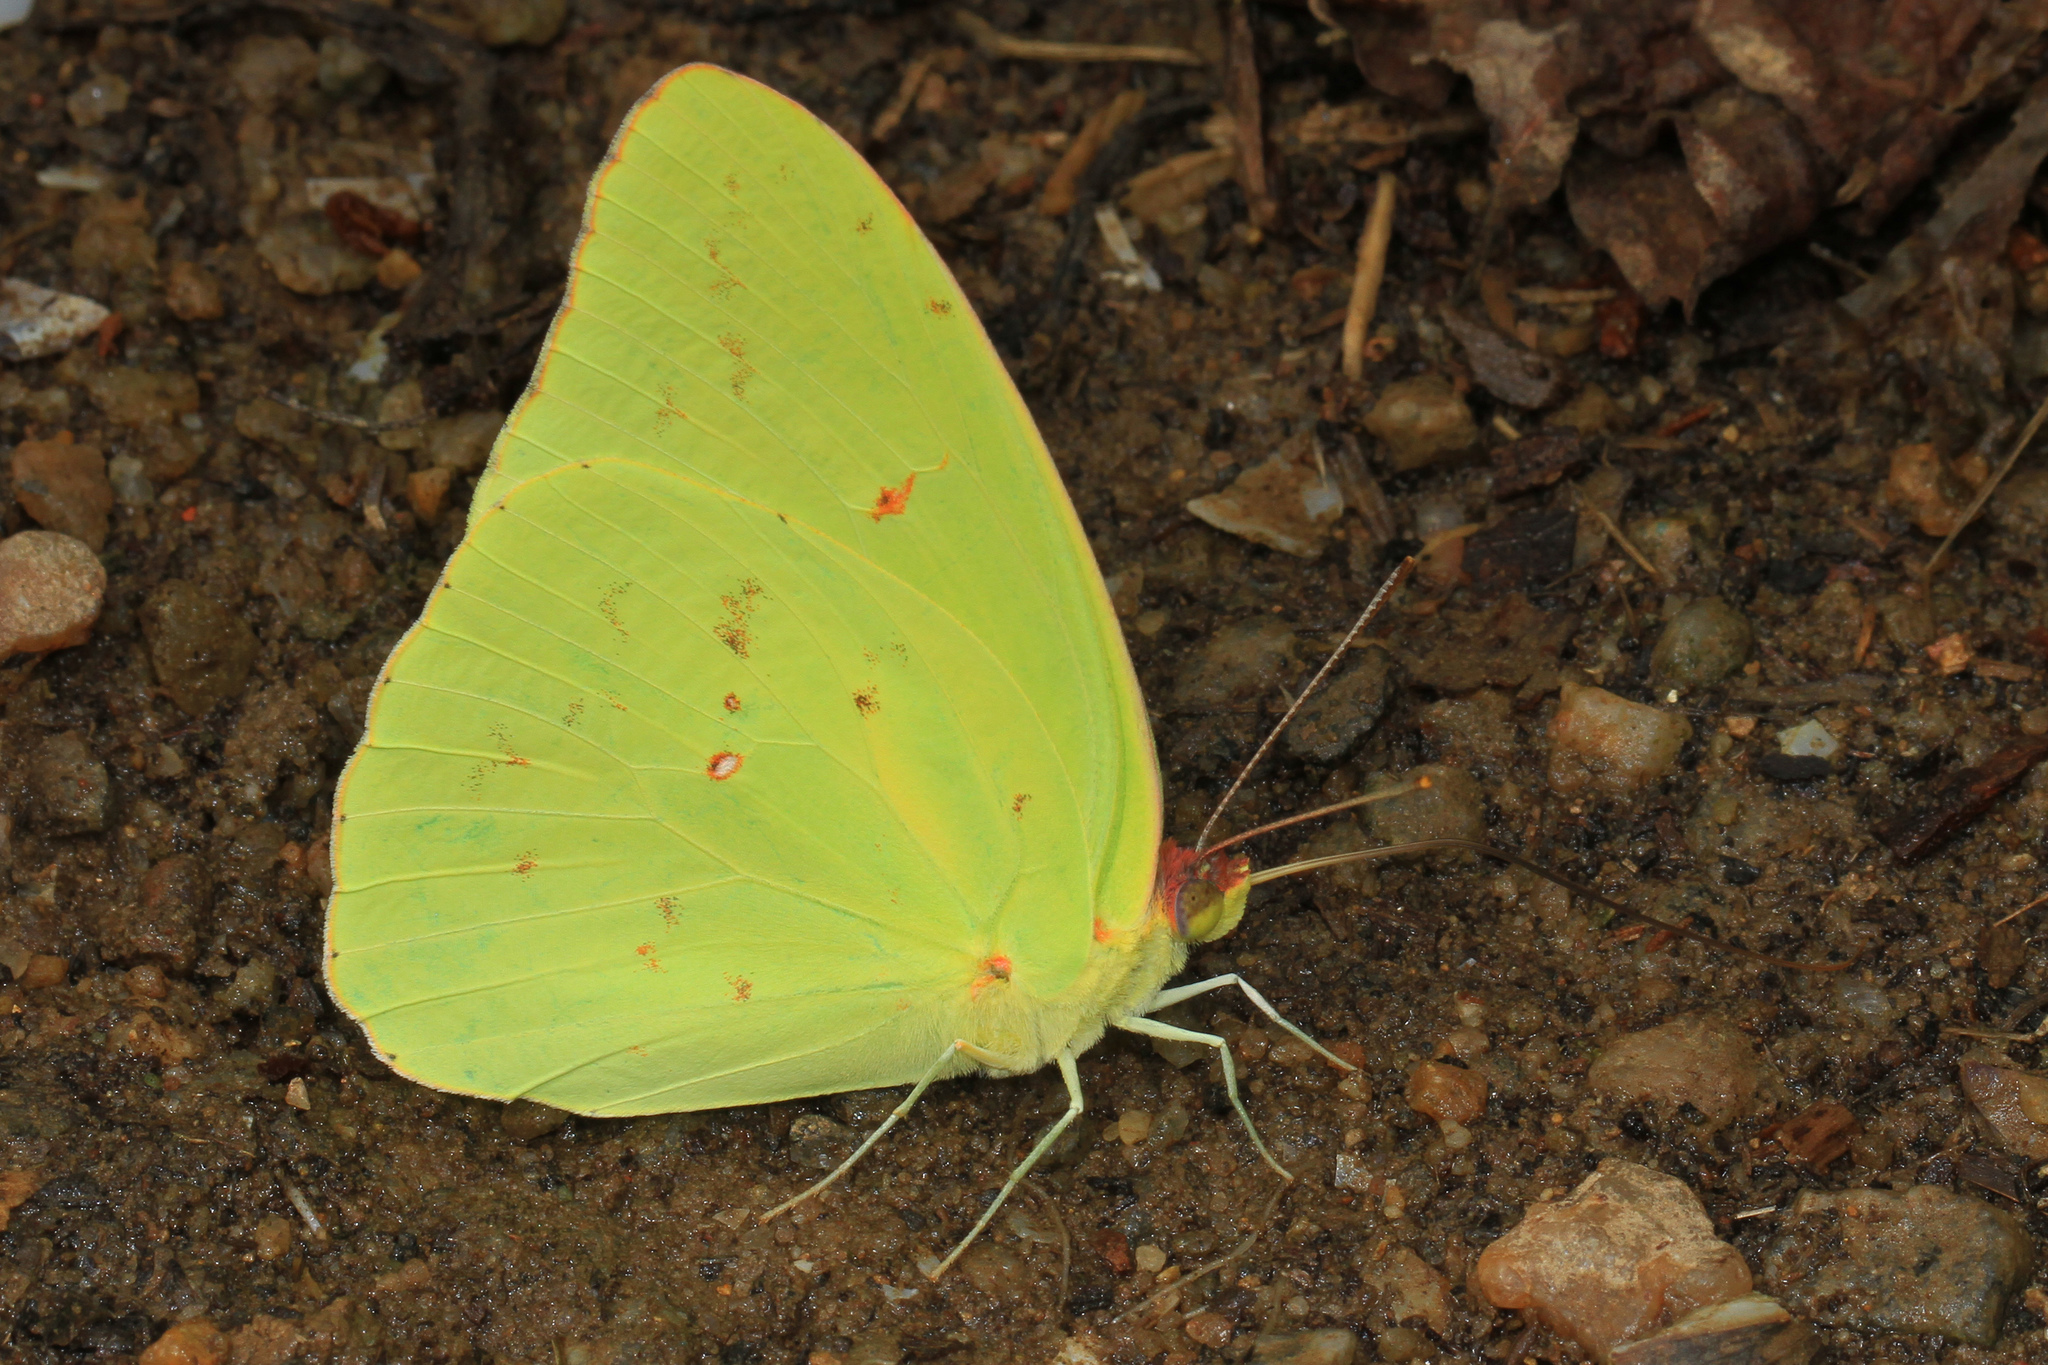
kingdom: Animalia
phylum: Arthropoda
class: Insecta
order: Lepidoptera
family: Pieridae
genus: Phoebis
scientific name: Phoebis sennae
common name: Cloudless sulphur
